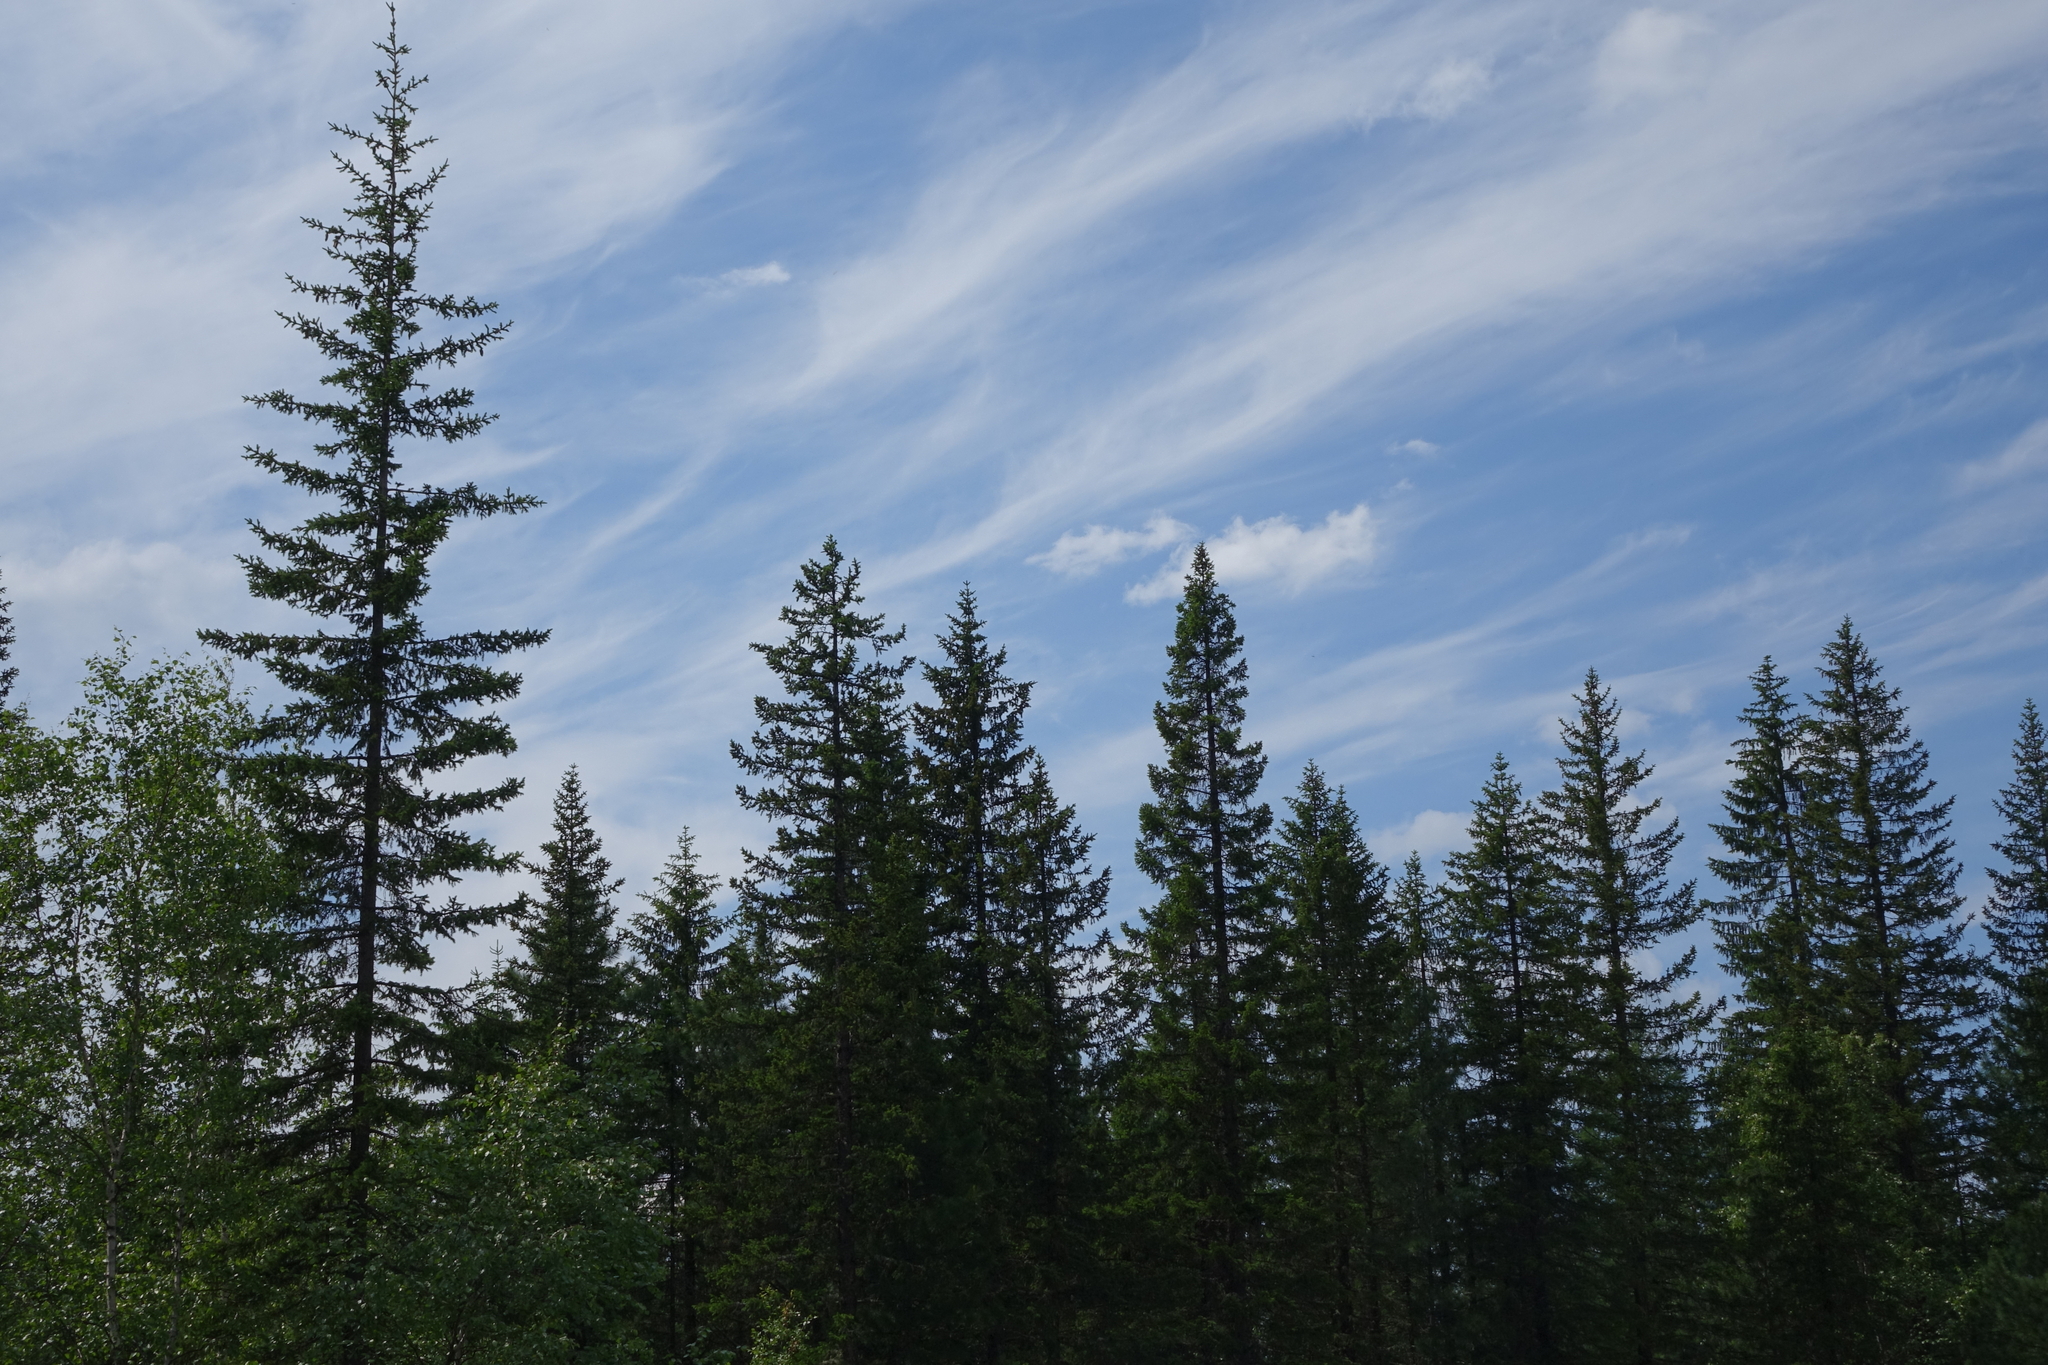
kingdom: Plantae
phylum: Tracheophyta
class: Pinopsida
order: Pinales
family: Pinaceae
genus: Picea
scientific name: Picea obovata
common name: Siberian spruce
